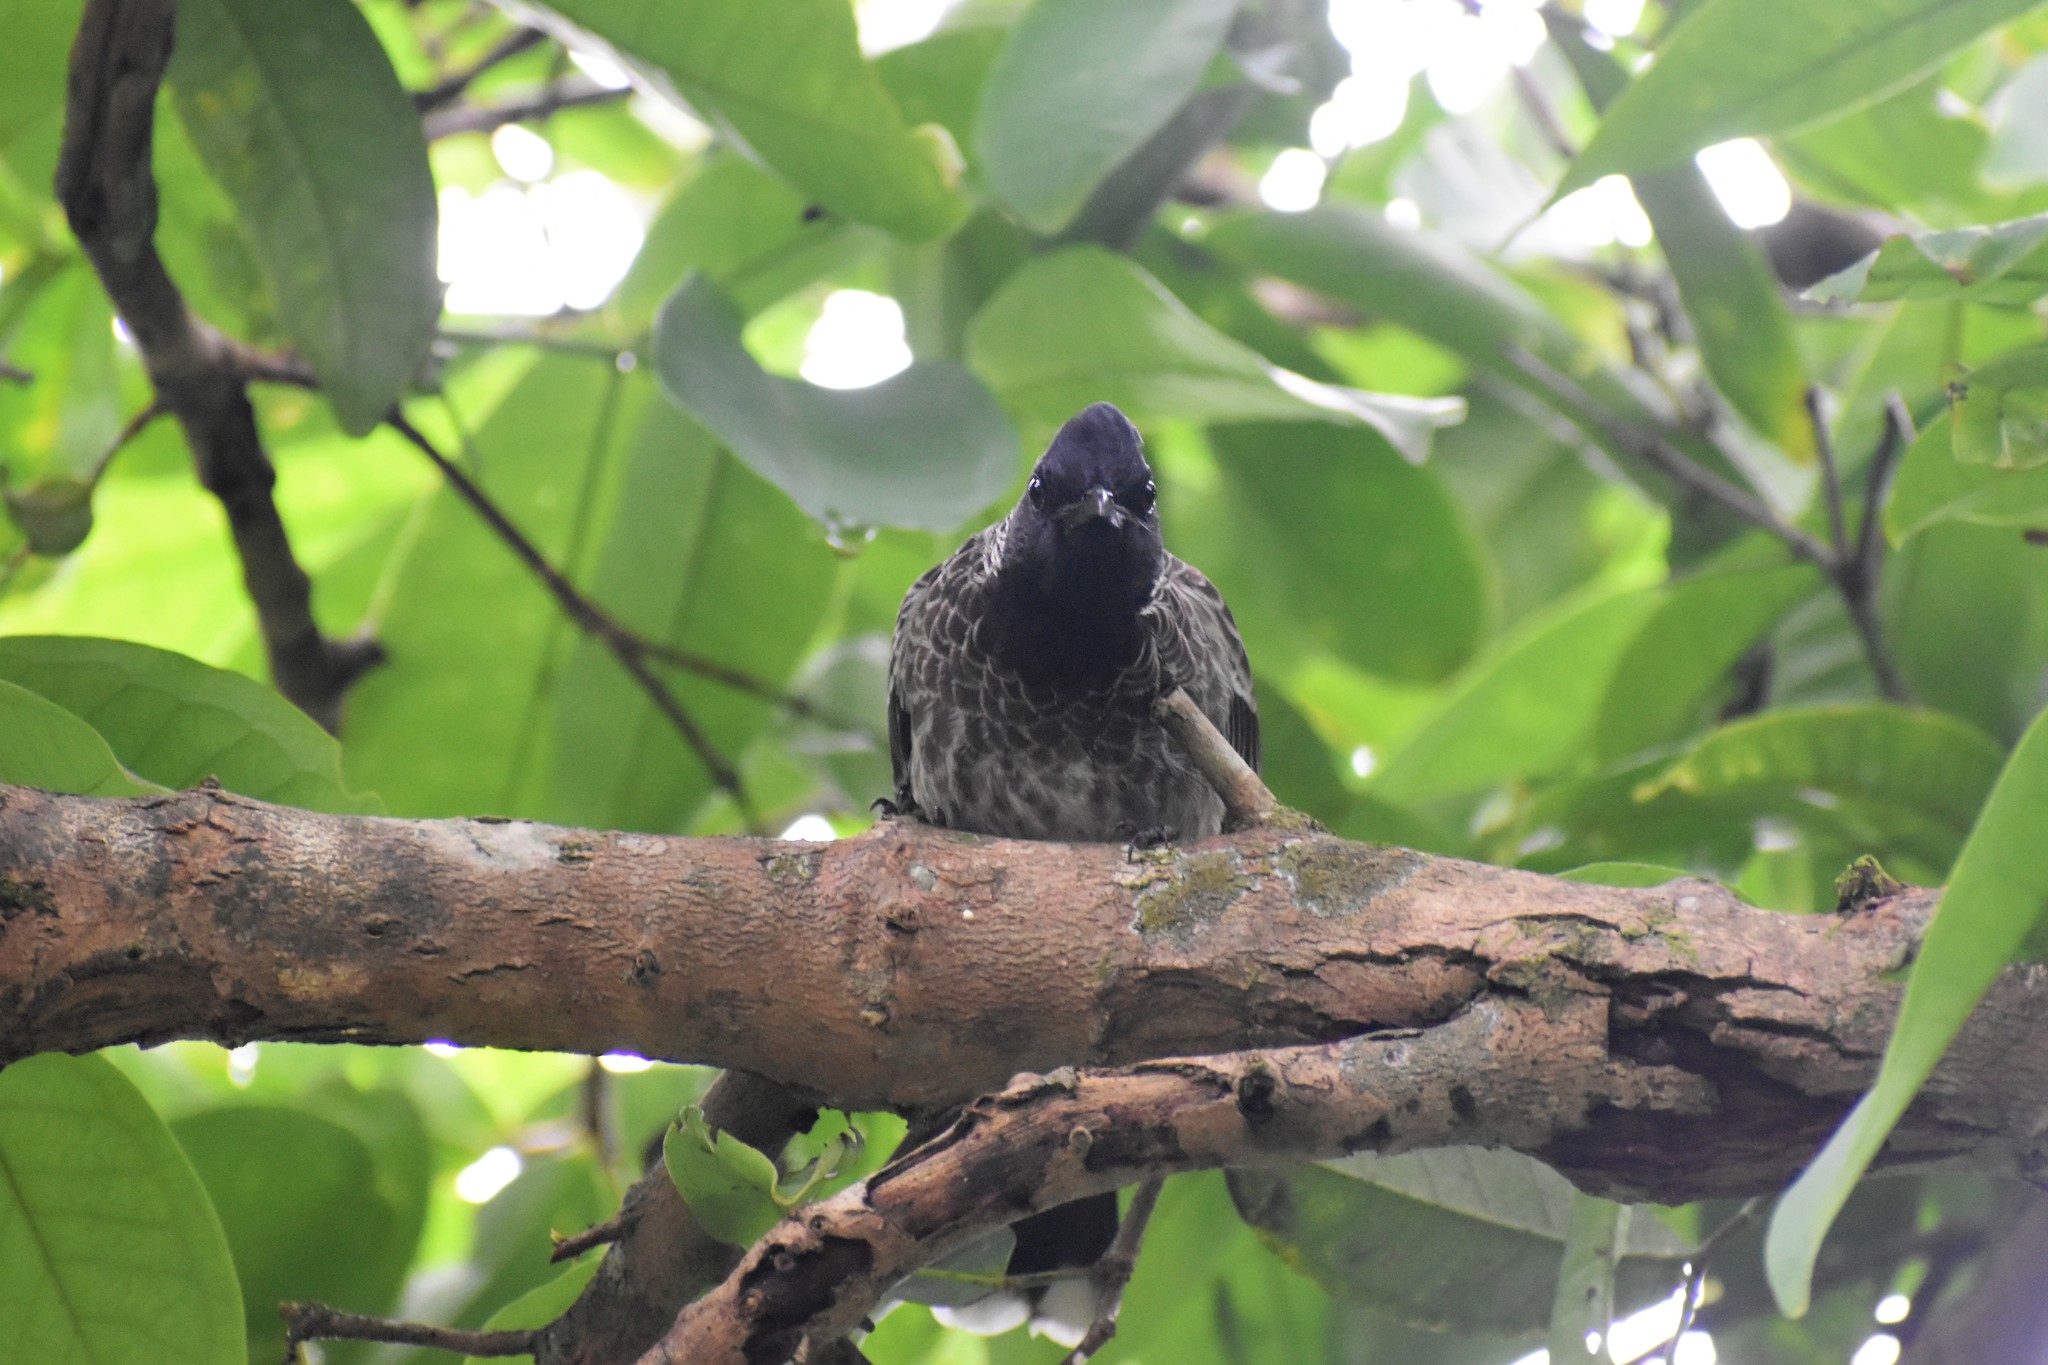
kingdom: Animalia
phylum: Chordata
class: Aves
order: Passeriformes
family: Pycnonotidae
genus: Pycnonotus
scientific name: Pycnonotus cafer
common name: Red-vented bulbul
